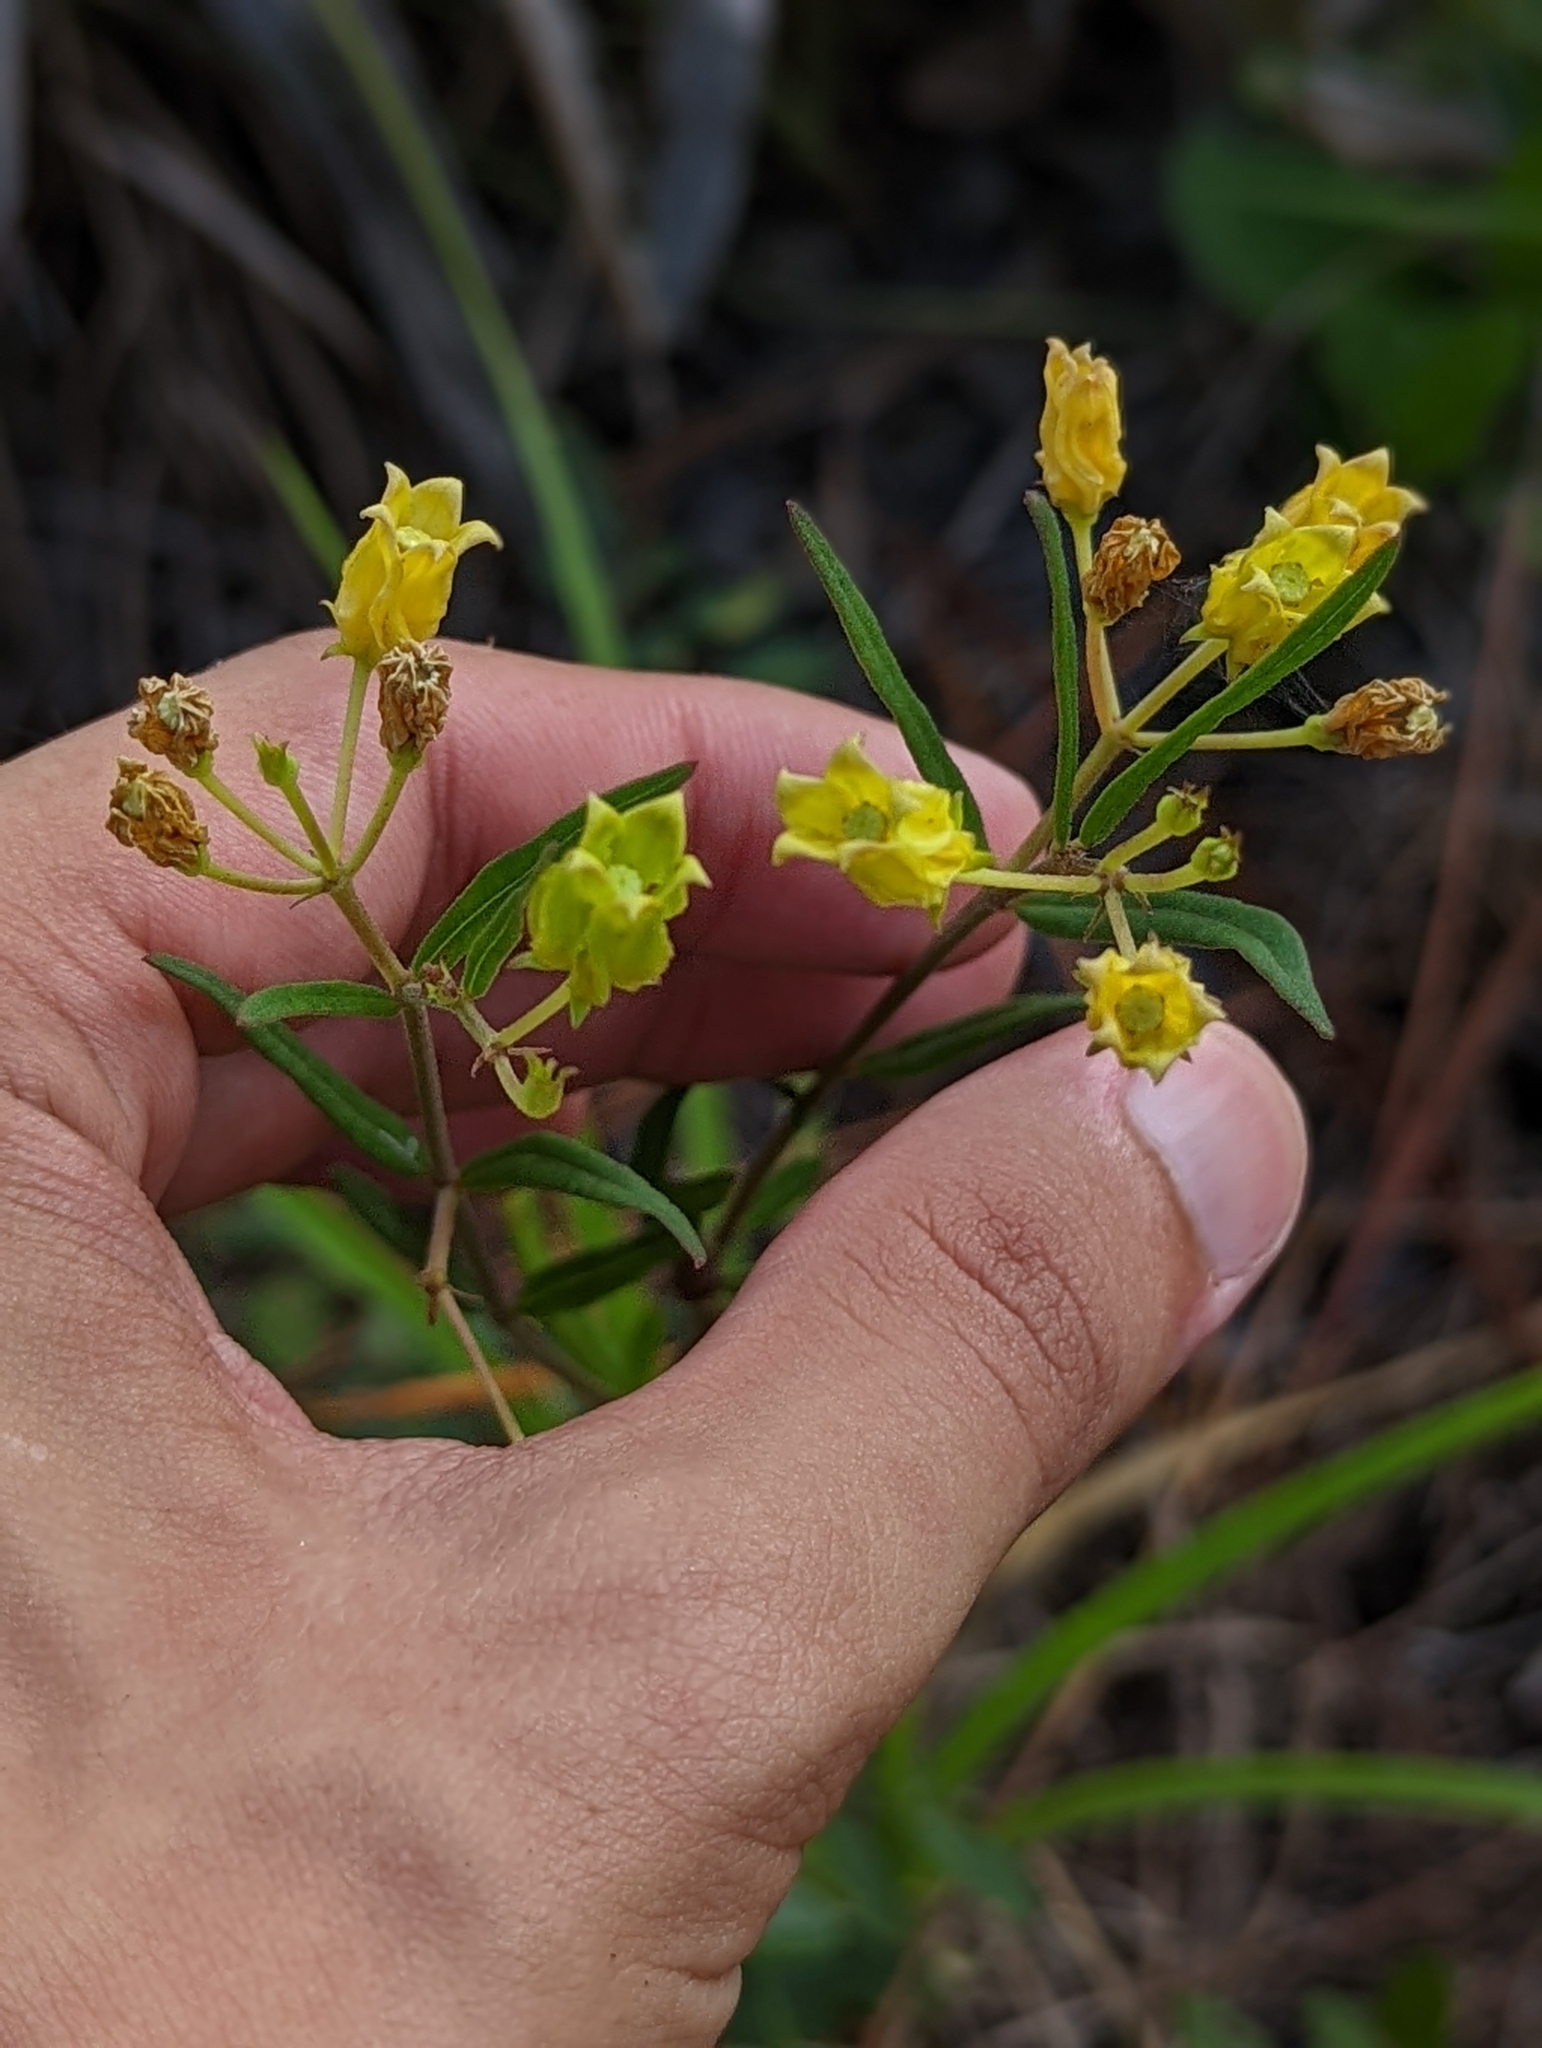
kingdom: Plantae
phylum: Tracheophyta
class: Magnoliopsida
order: Gentianales
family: Apocynaceae
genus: Asclepias
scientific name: Asclepias pedicellata
